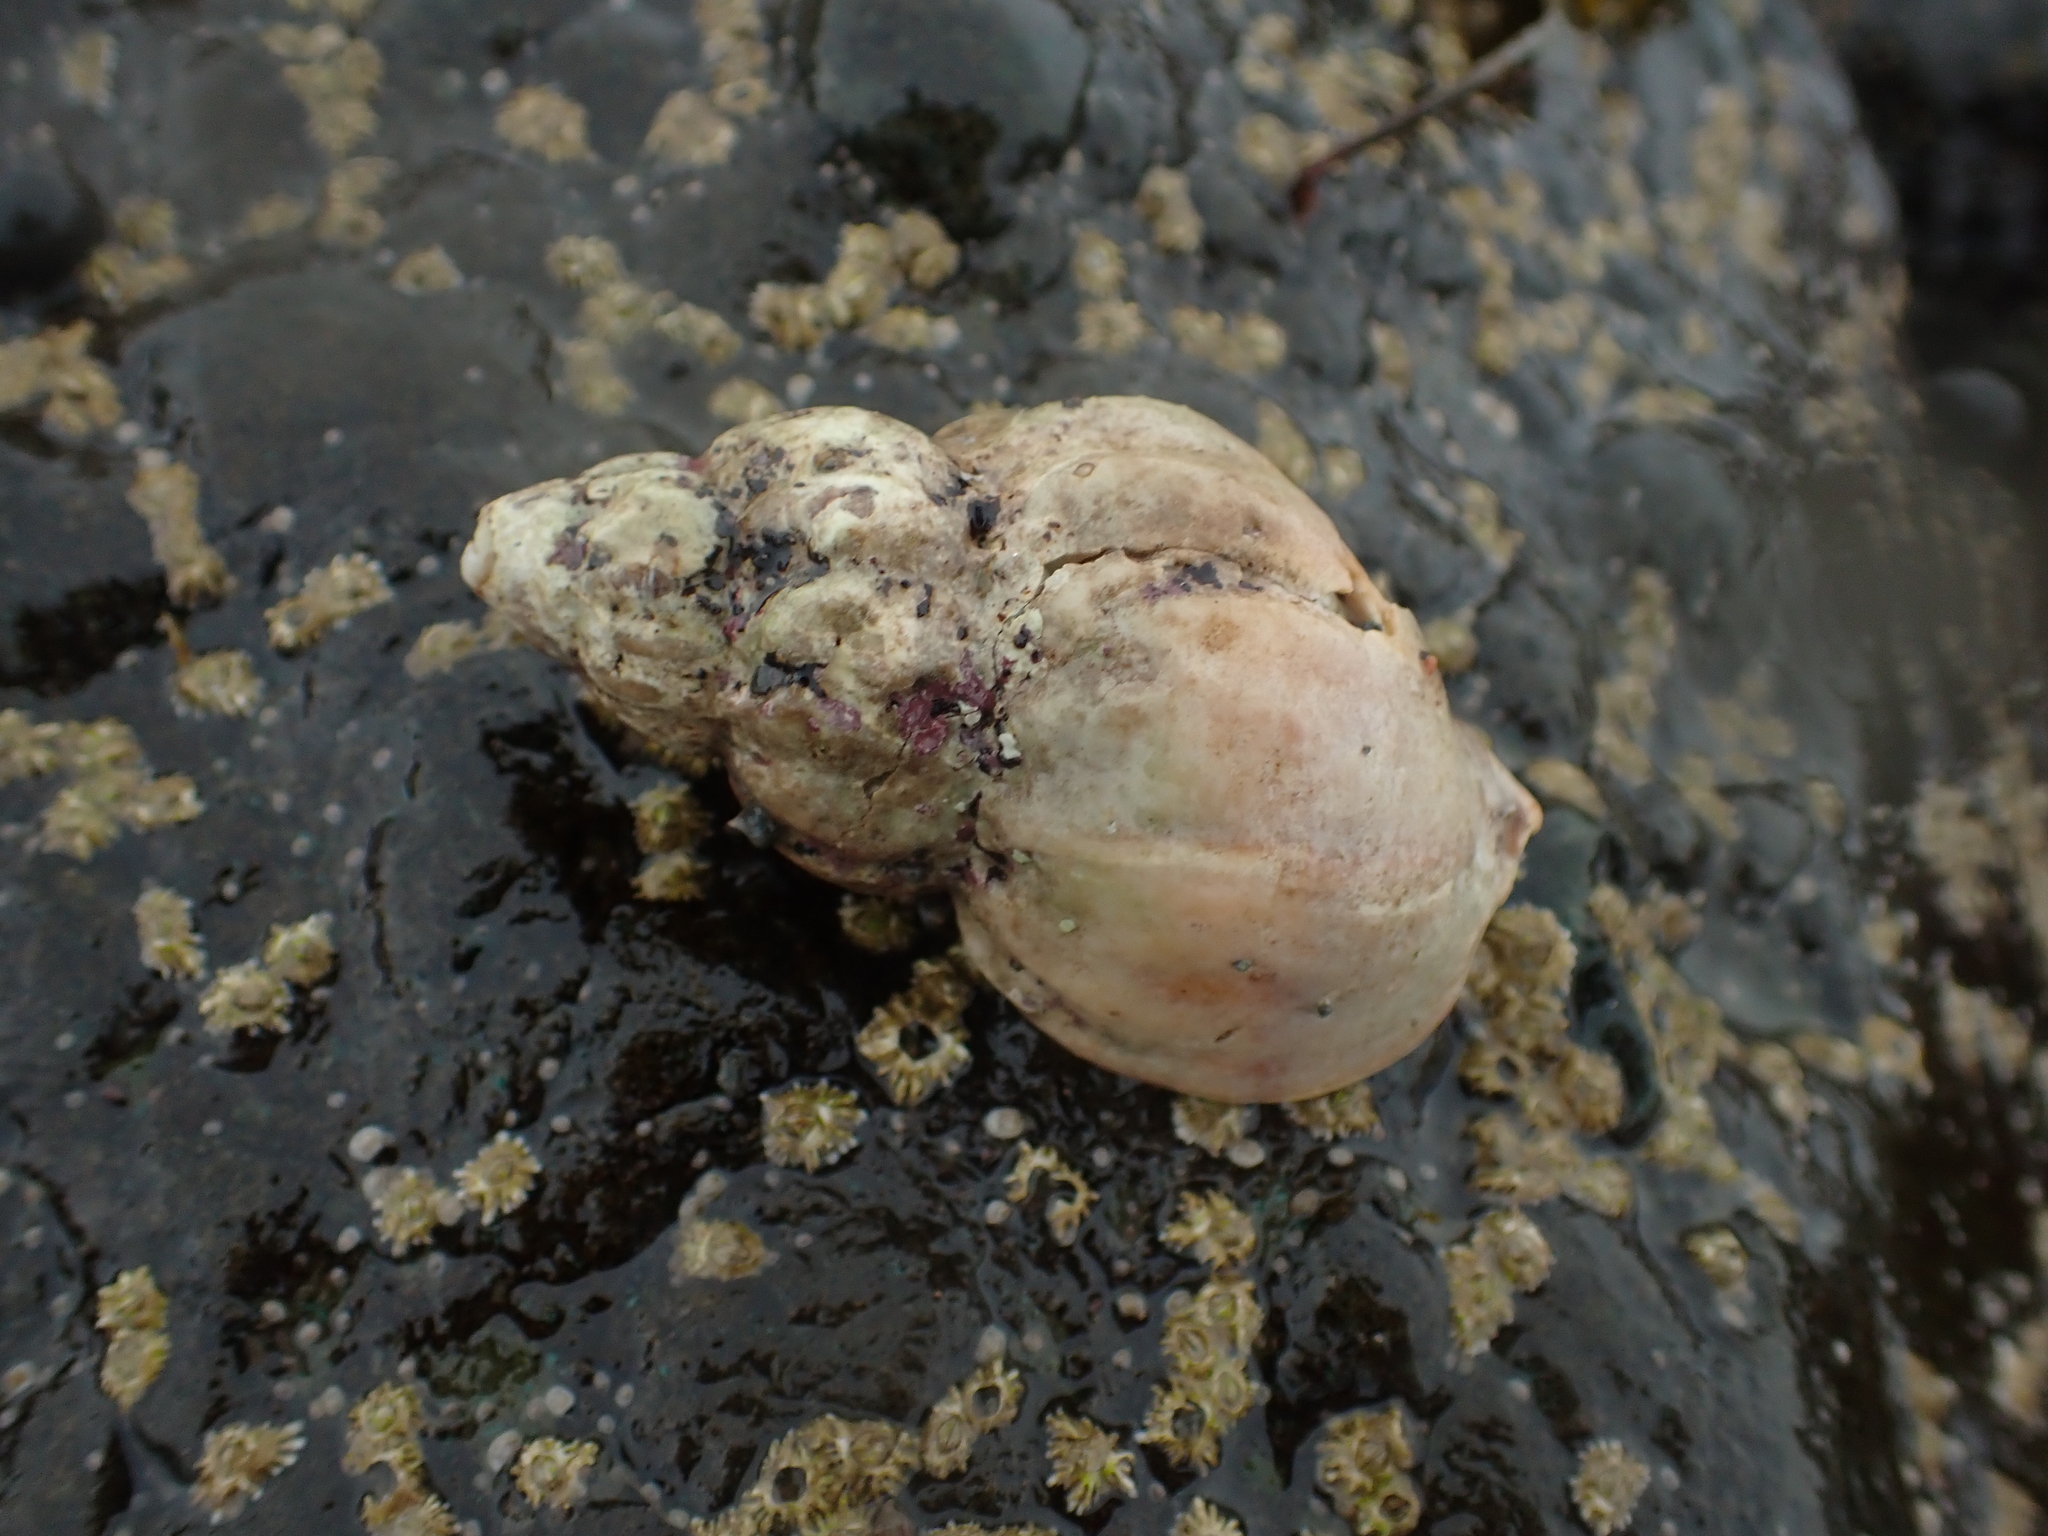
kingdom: Animalia
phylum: Mollusca
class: Gastropoda
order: Neogastropoda
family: Buccinidae
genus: Buccinum
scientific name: Buccinum undatum
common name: Common whelk
